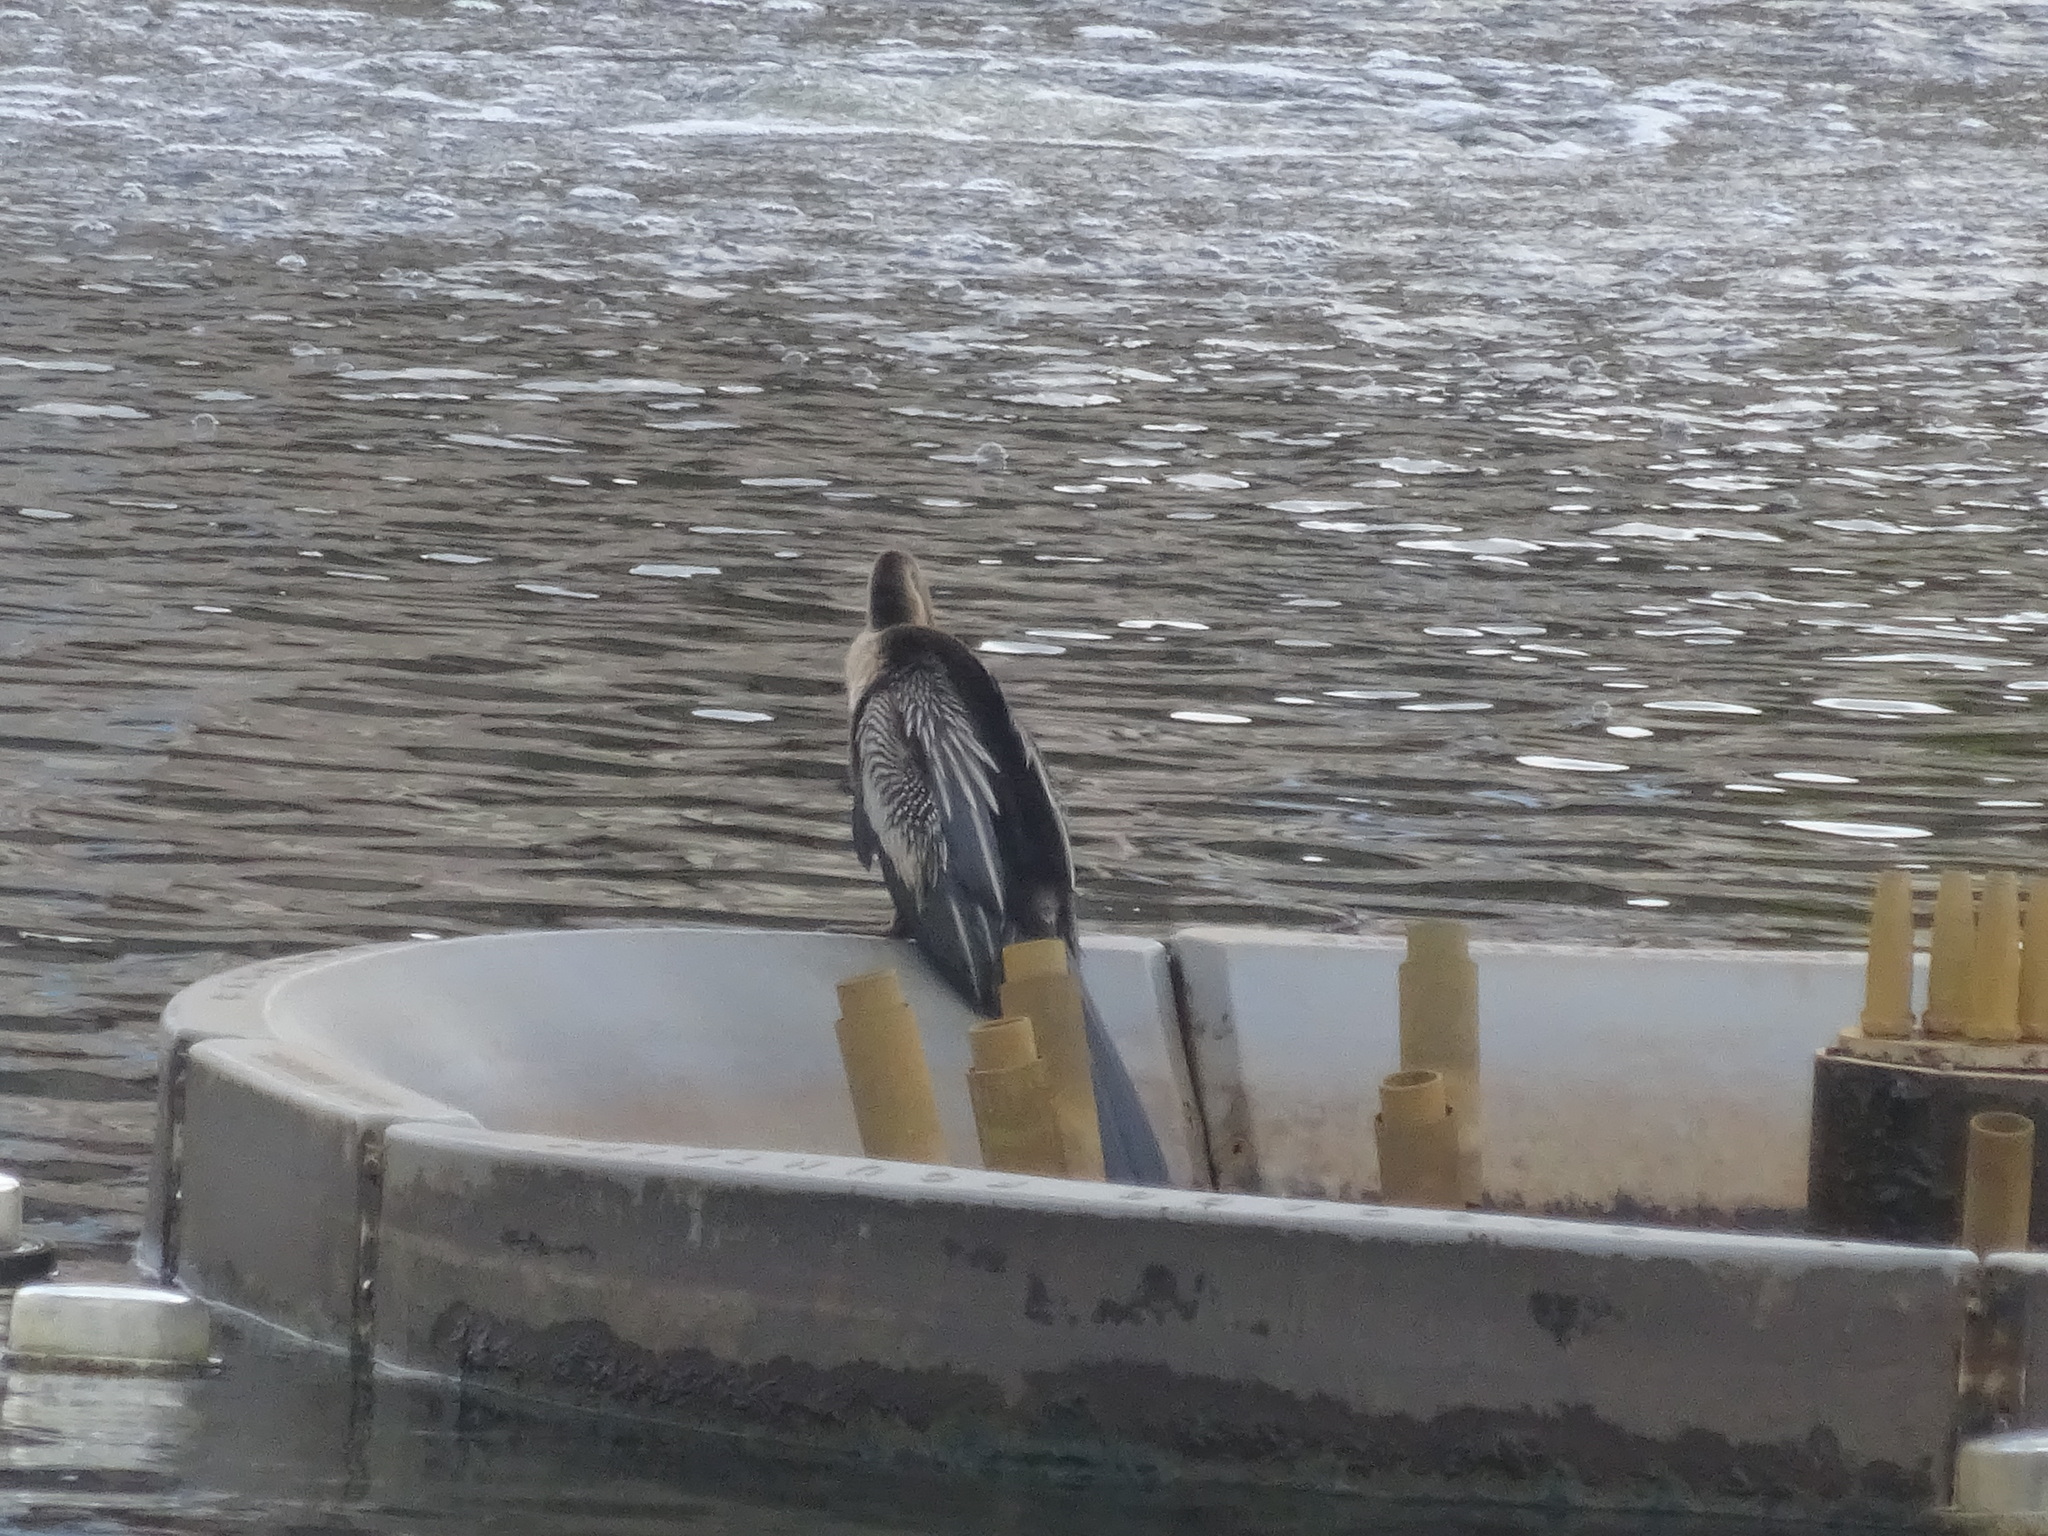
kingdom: Animalia
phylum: Chordata
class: Aves
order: Suliformes
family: Anhingidae
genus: Anhinga
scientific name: Anhinga anhinga
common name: Anhinga
